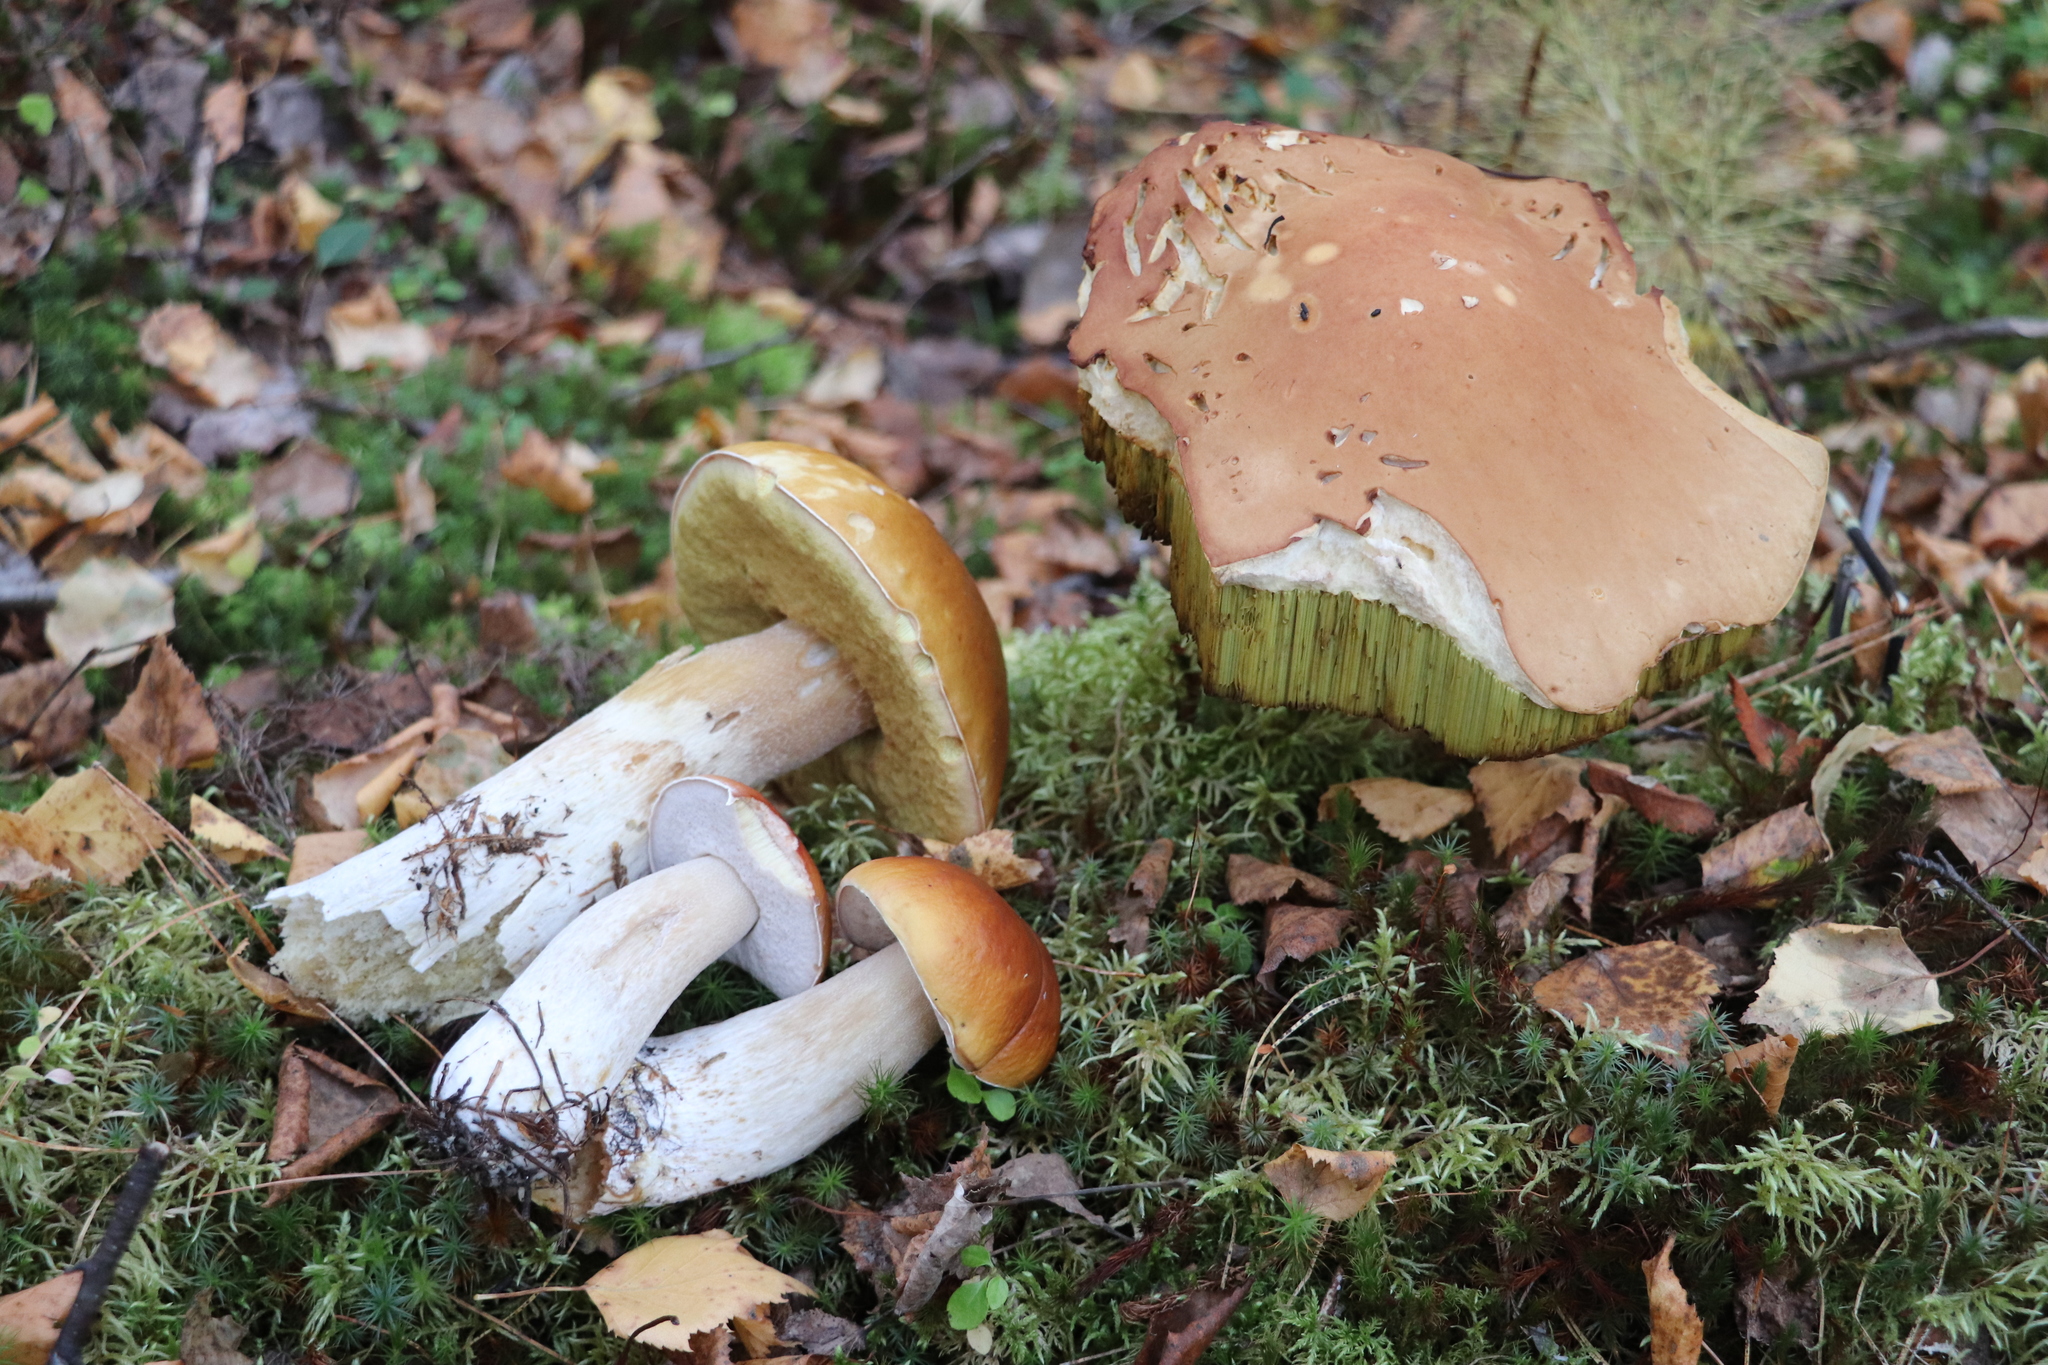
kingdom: Fungi
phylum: Basidiomycota
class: Agaricomycetes
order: Boletales
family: Boletaceae
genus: Boletus
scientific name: Boletus edulis
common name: Cep
